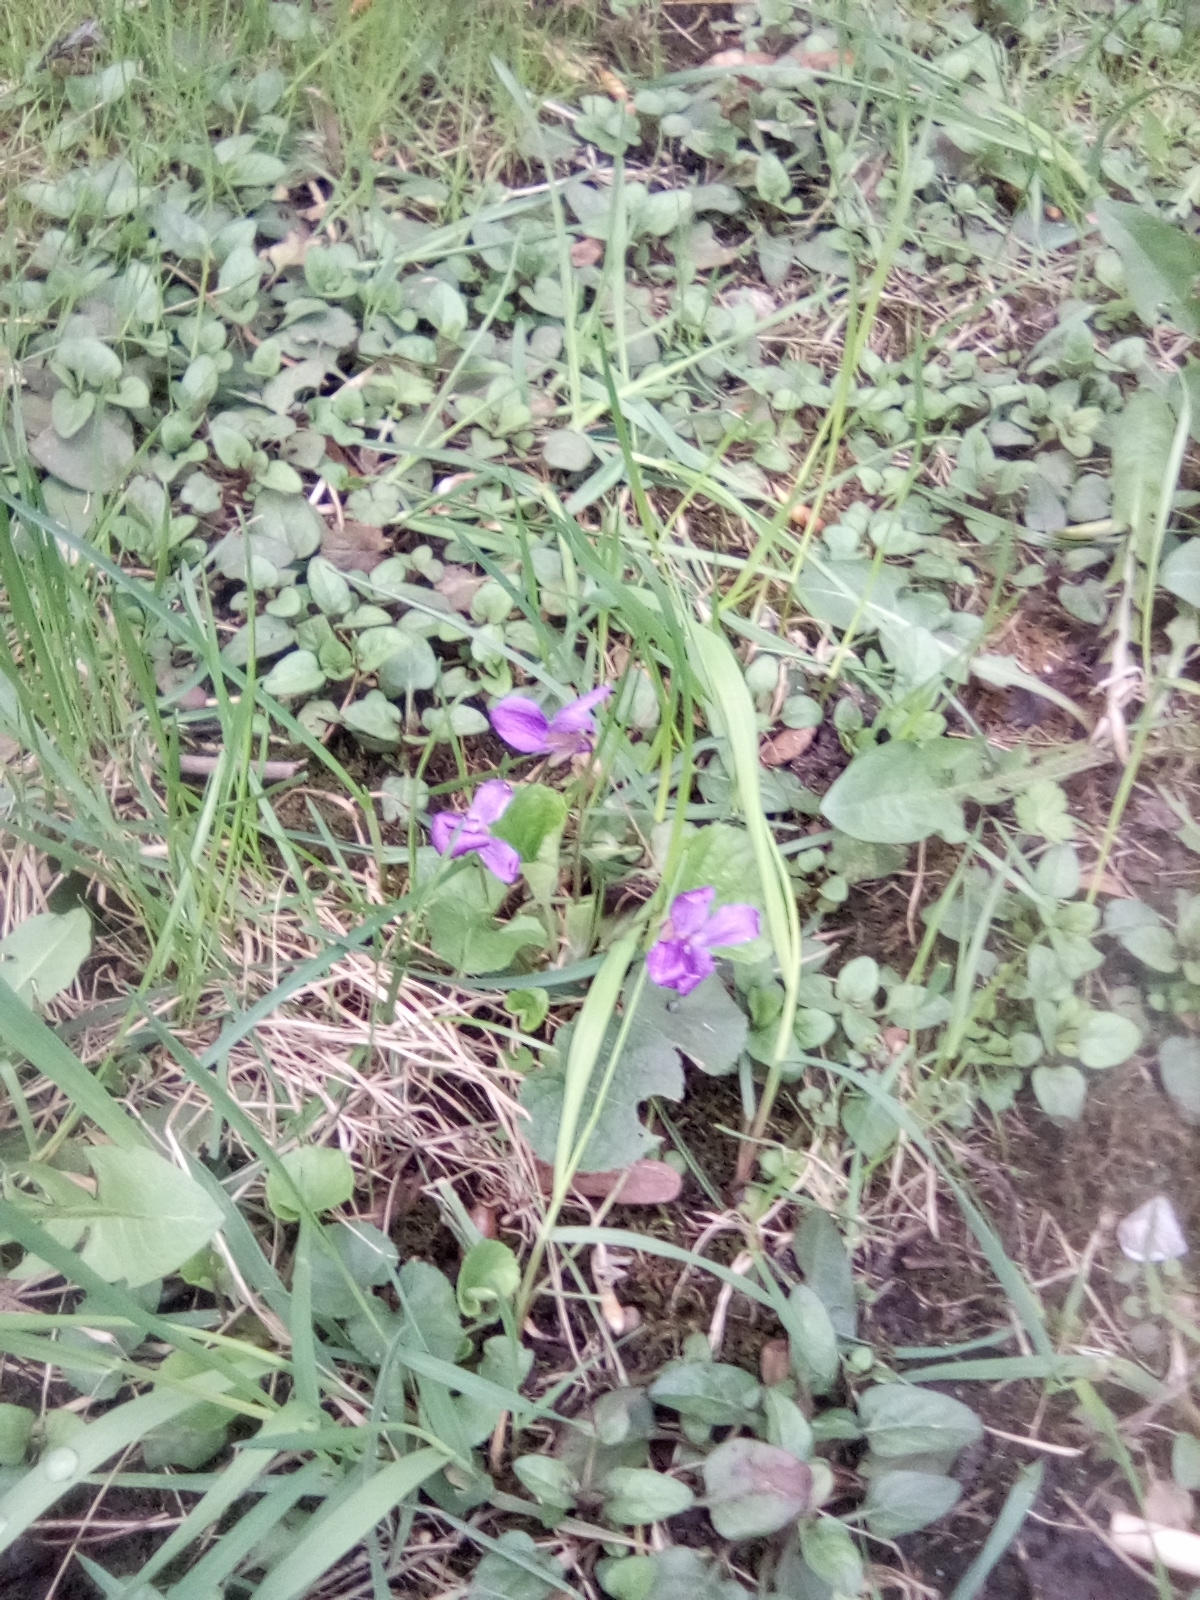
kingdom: Plantae
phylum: Tracheophyta
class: Magnoliopsida
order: Malpighiales
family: Violaceae
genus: Viola
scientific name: Viola odorata
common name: Sweet violet
